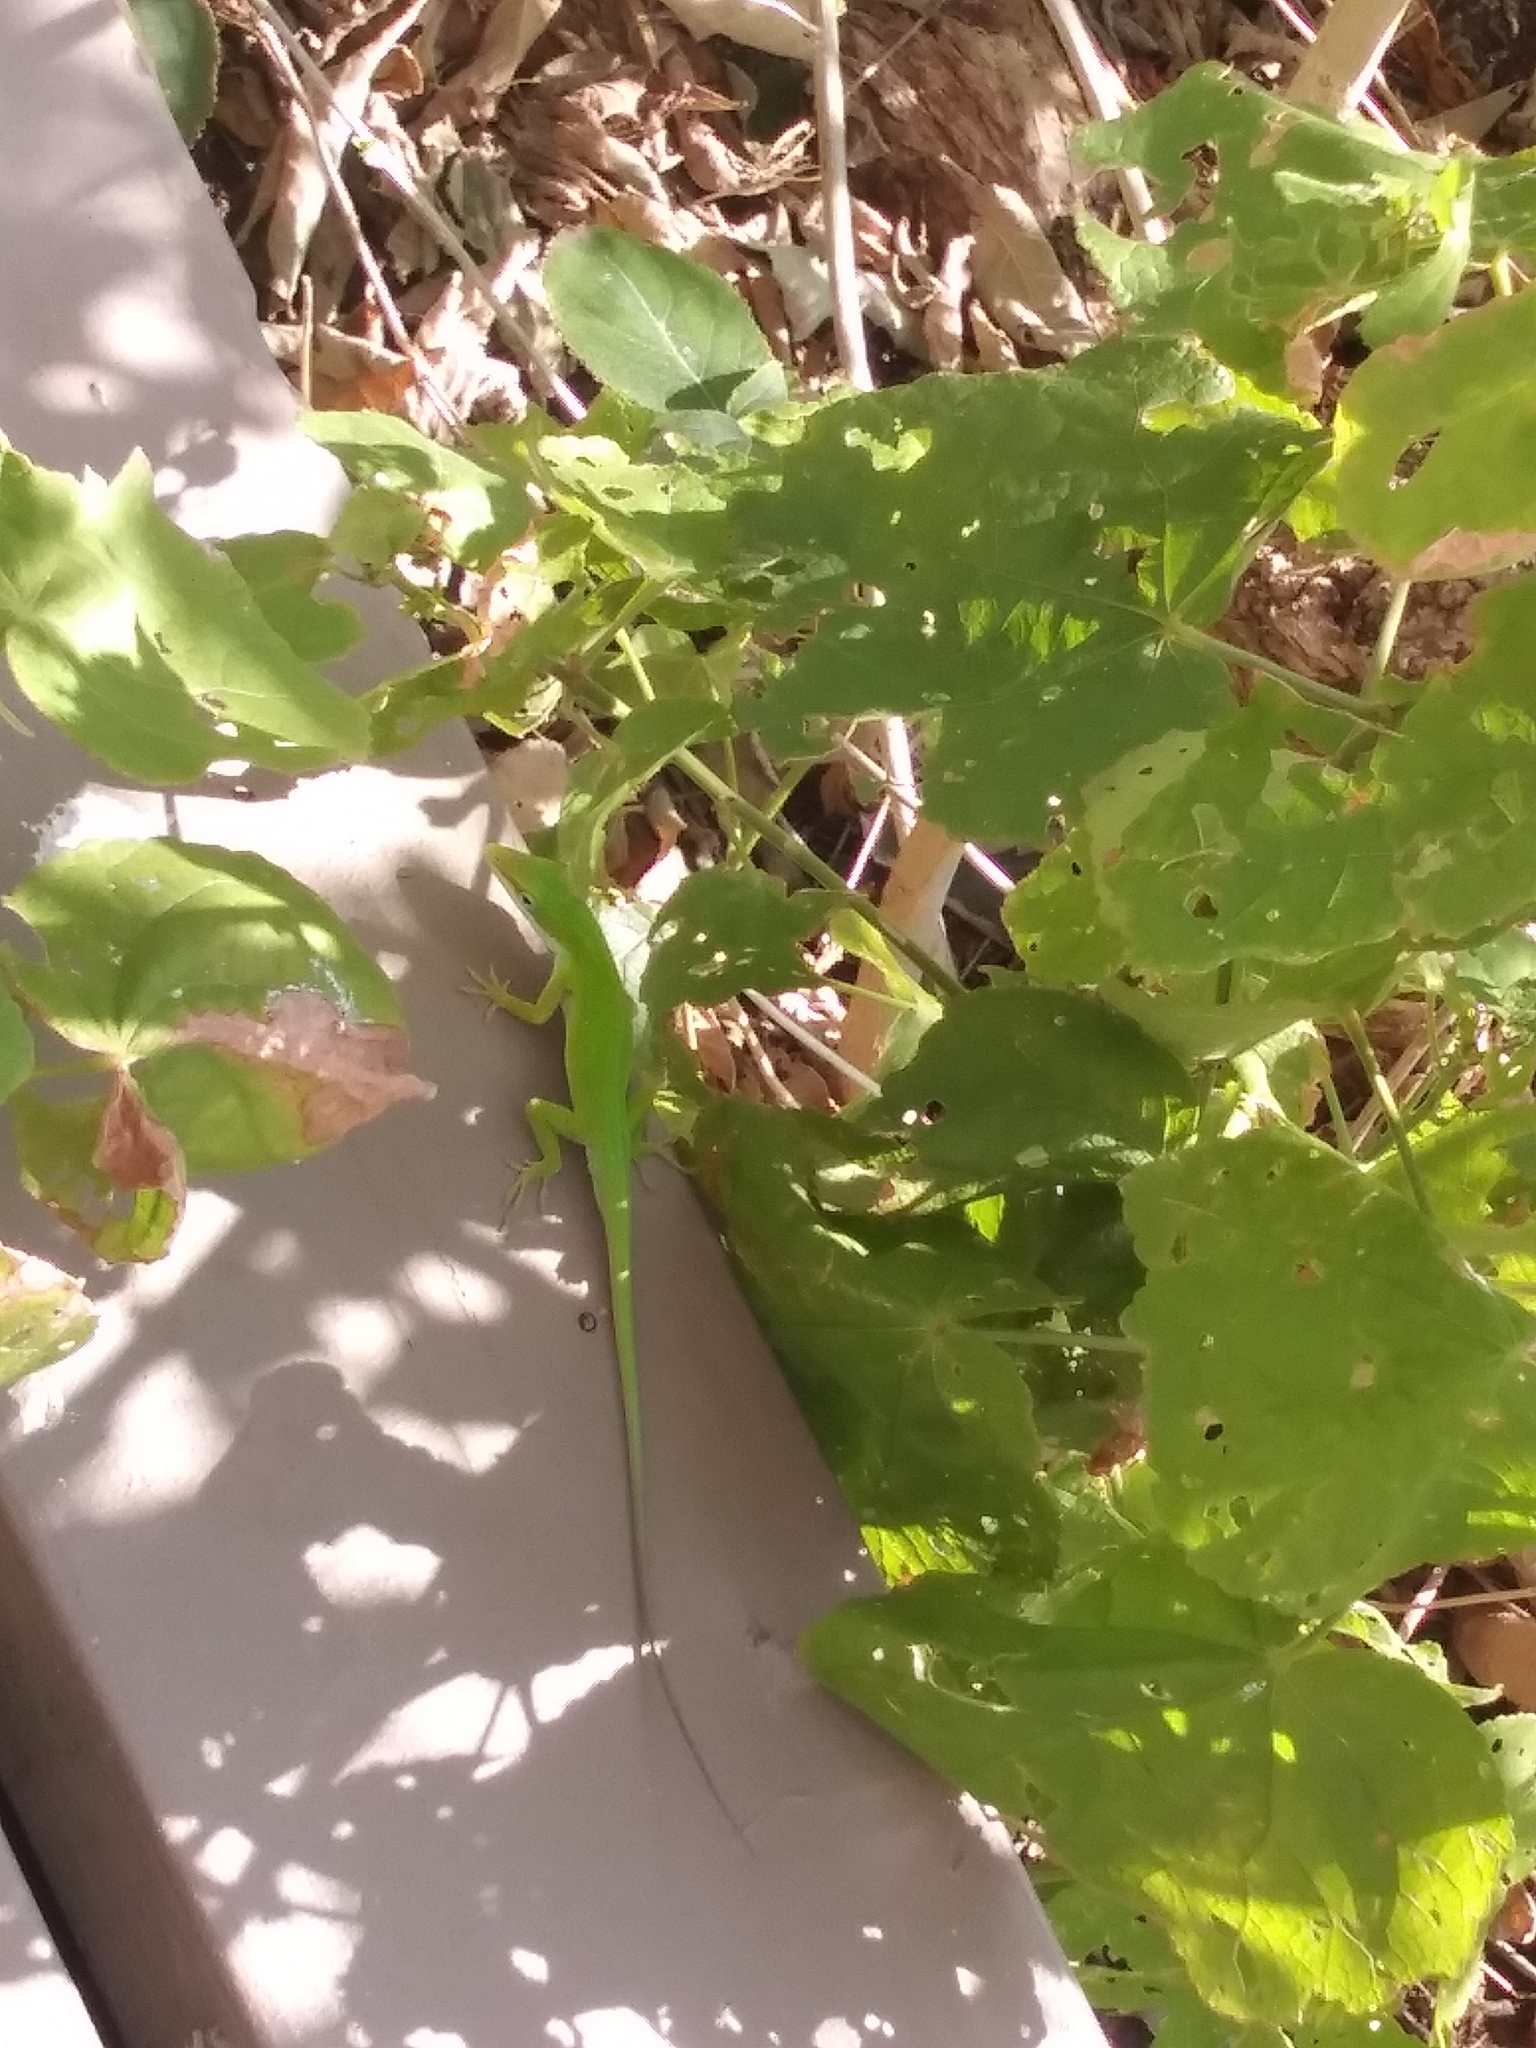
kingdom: Animalia
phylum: Chordata
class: Squamata
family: Dactyloidae
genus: Anolis
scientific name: Anolis carolinensis
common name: Green anole
